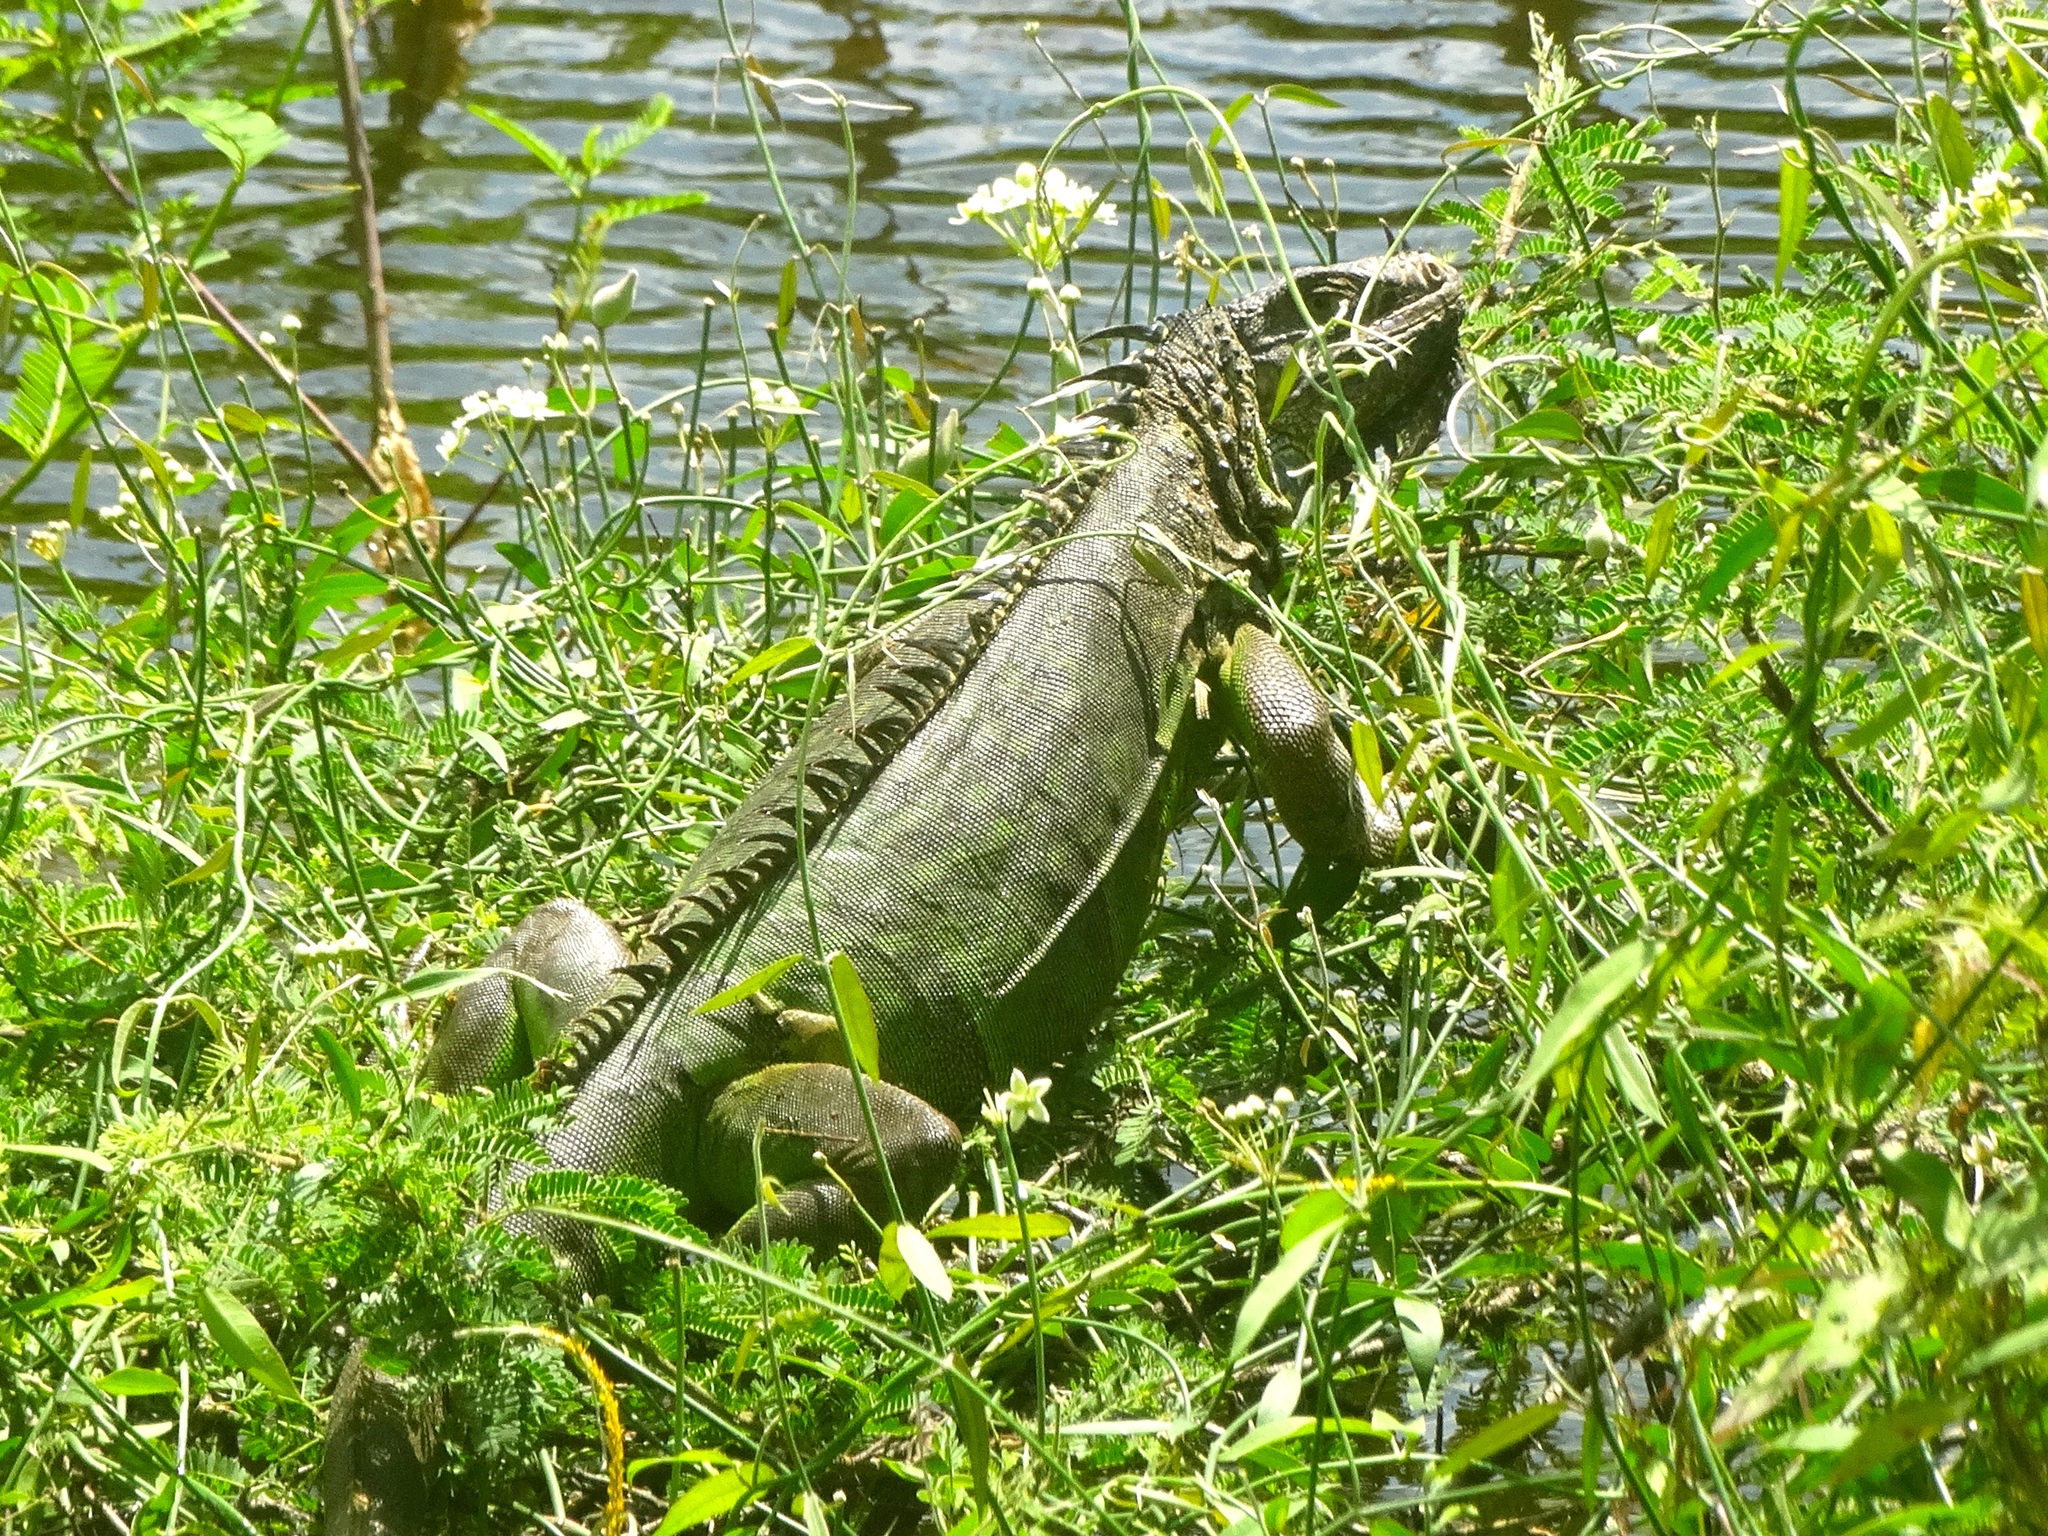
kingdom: Animalia
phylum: Chordata
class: Squamata
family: Iguanidae
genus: Iguana
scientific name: Iguana iguana
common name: Green iguana
